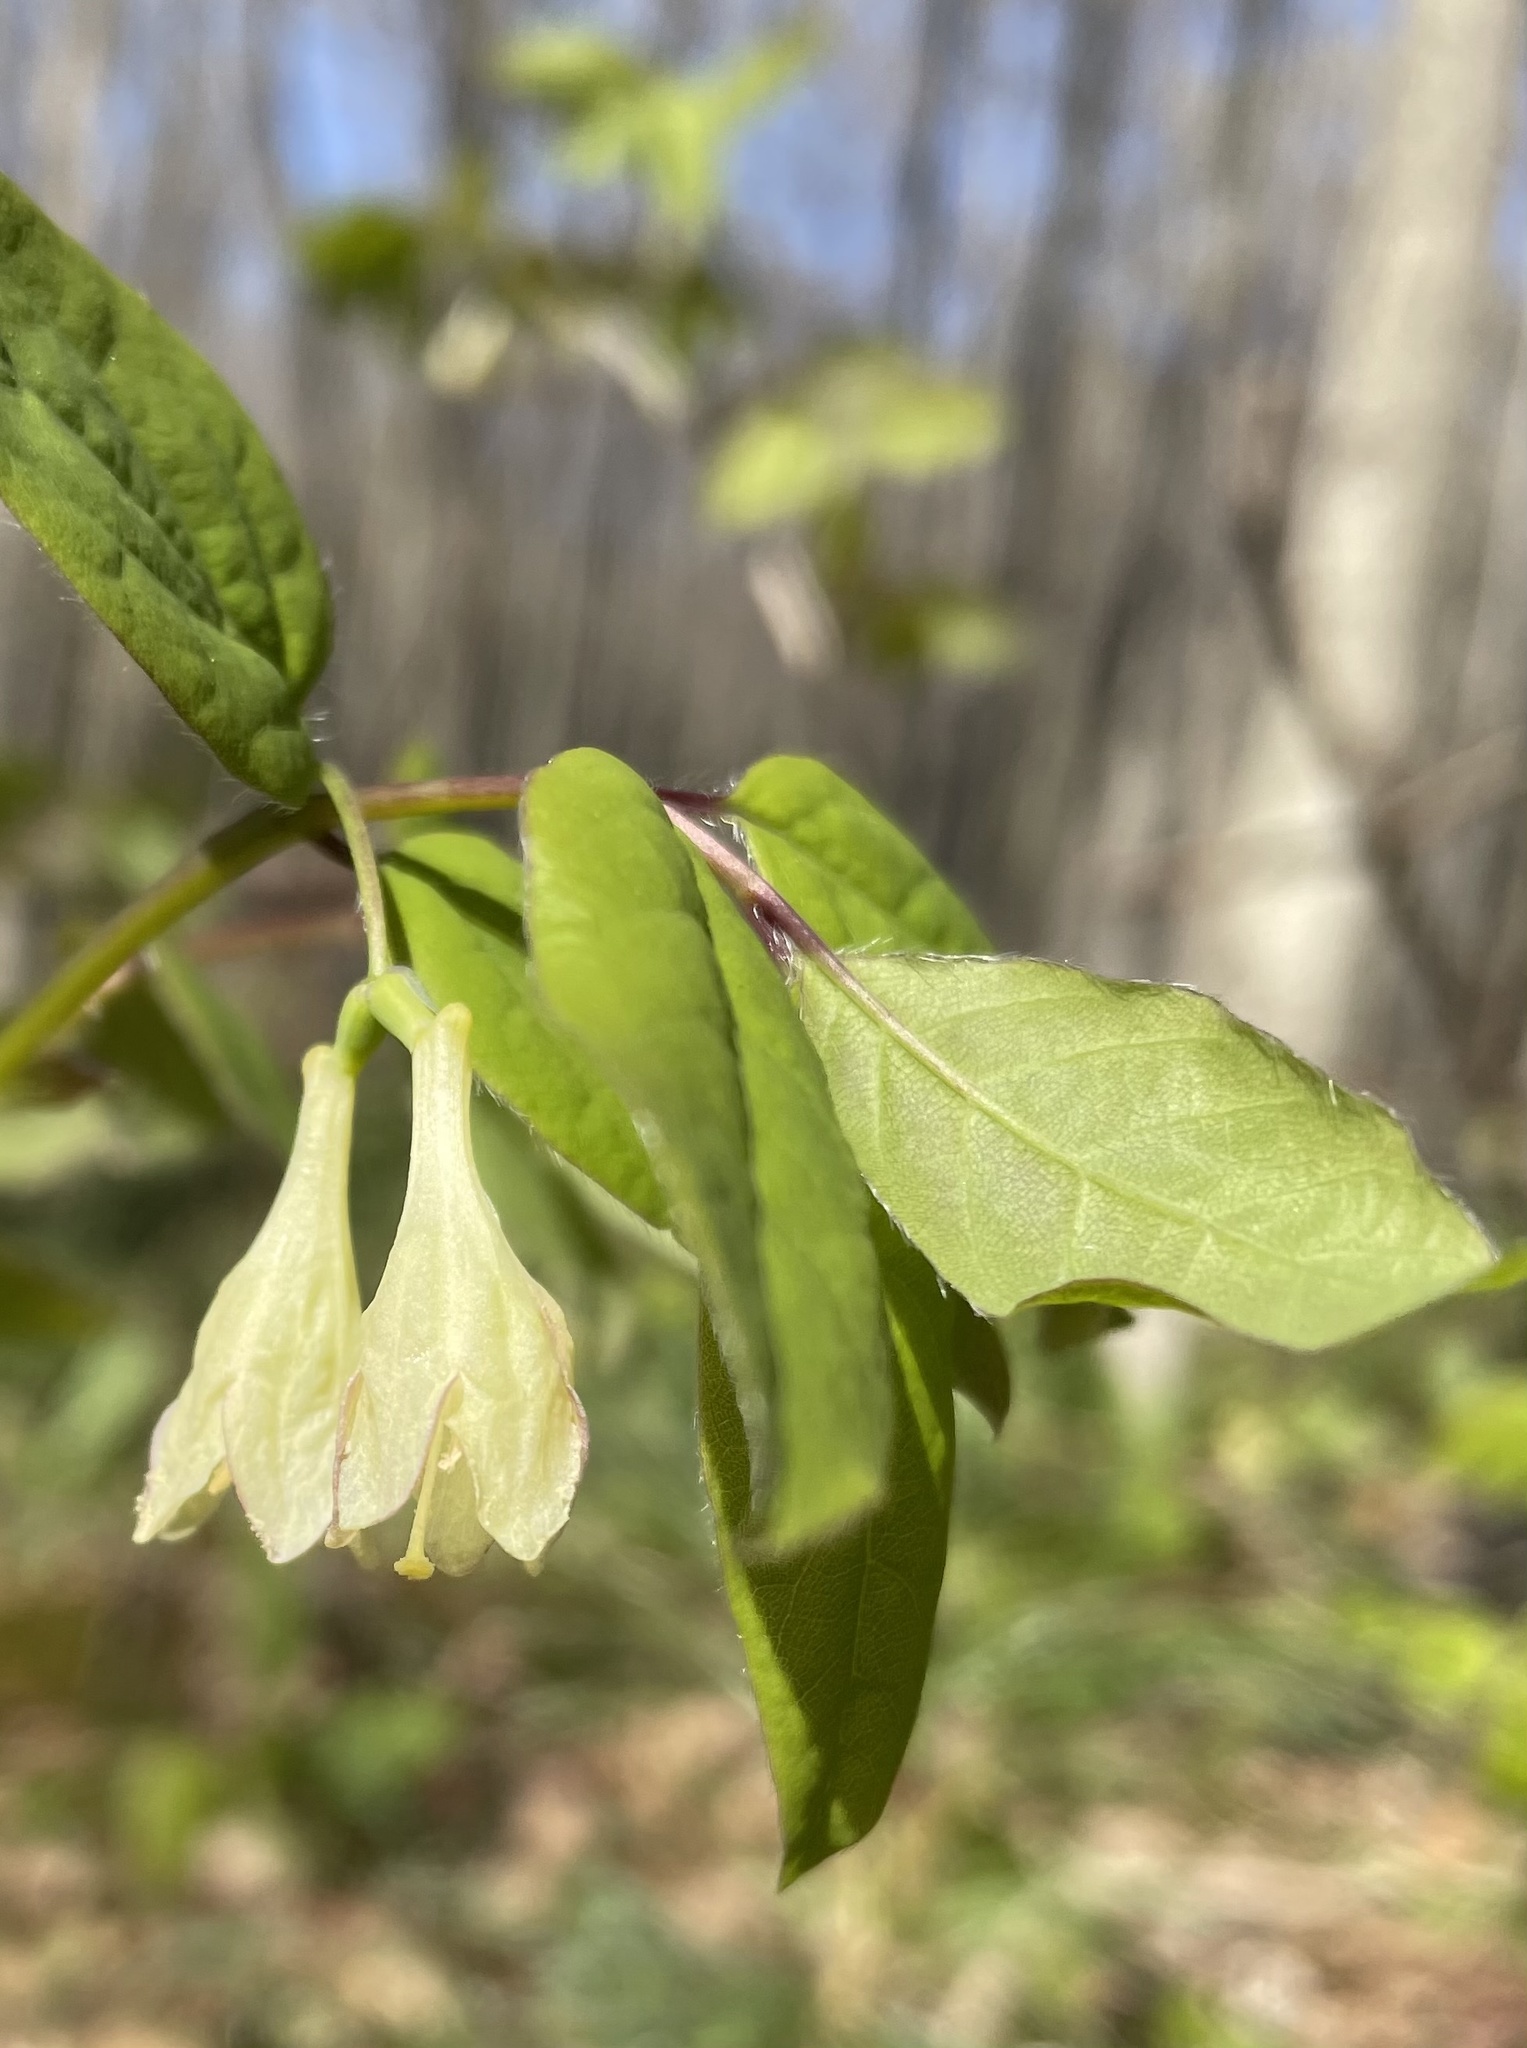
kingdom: Plantae
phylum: Tracheophyta
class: Magnoliopsida
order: Dipsacales
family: Caprifoliaceae
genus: Lonicera
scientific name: Lonicera canadensis
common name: American fly-honeysuckle
